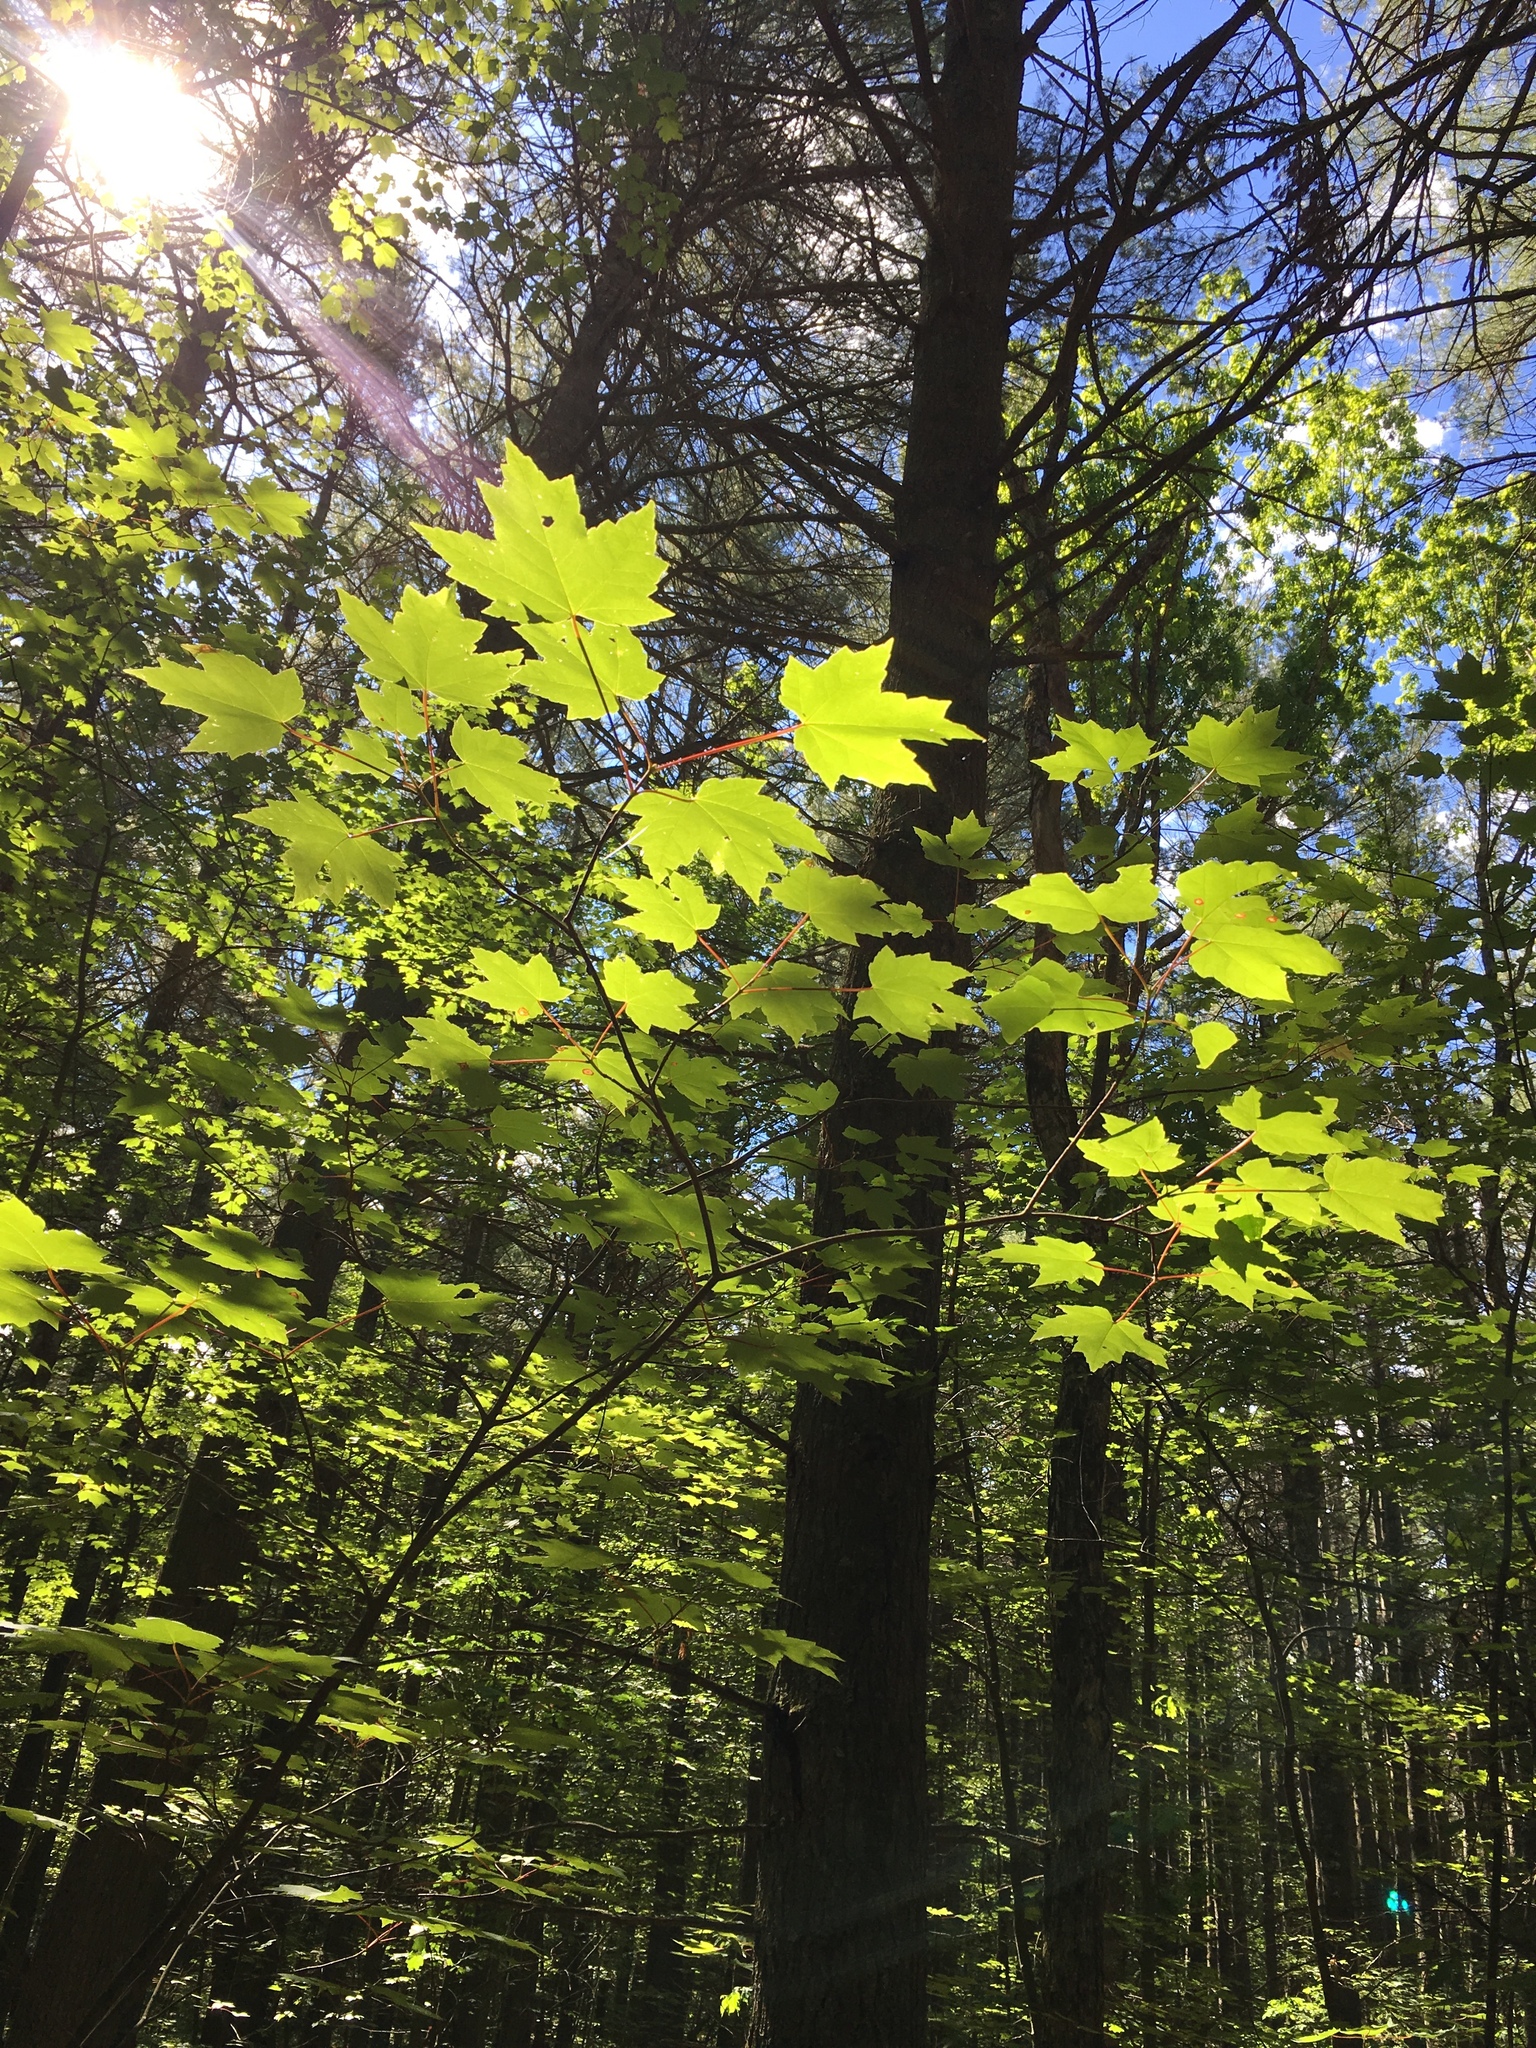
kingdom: Plantae
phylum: Tracheophyta
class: Magnoliopsida
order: Sapindales
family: Sapindaceae
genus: Acer
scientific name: Acer rubrum
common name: Red maple
